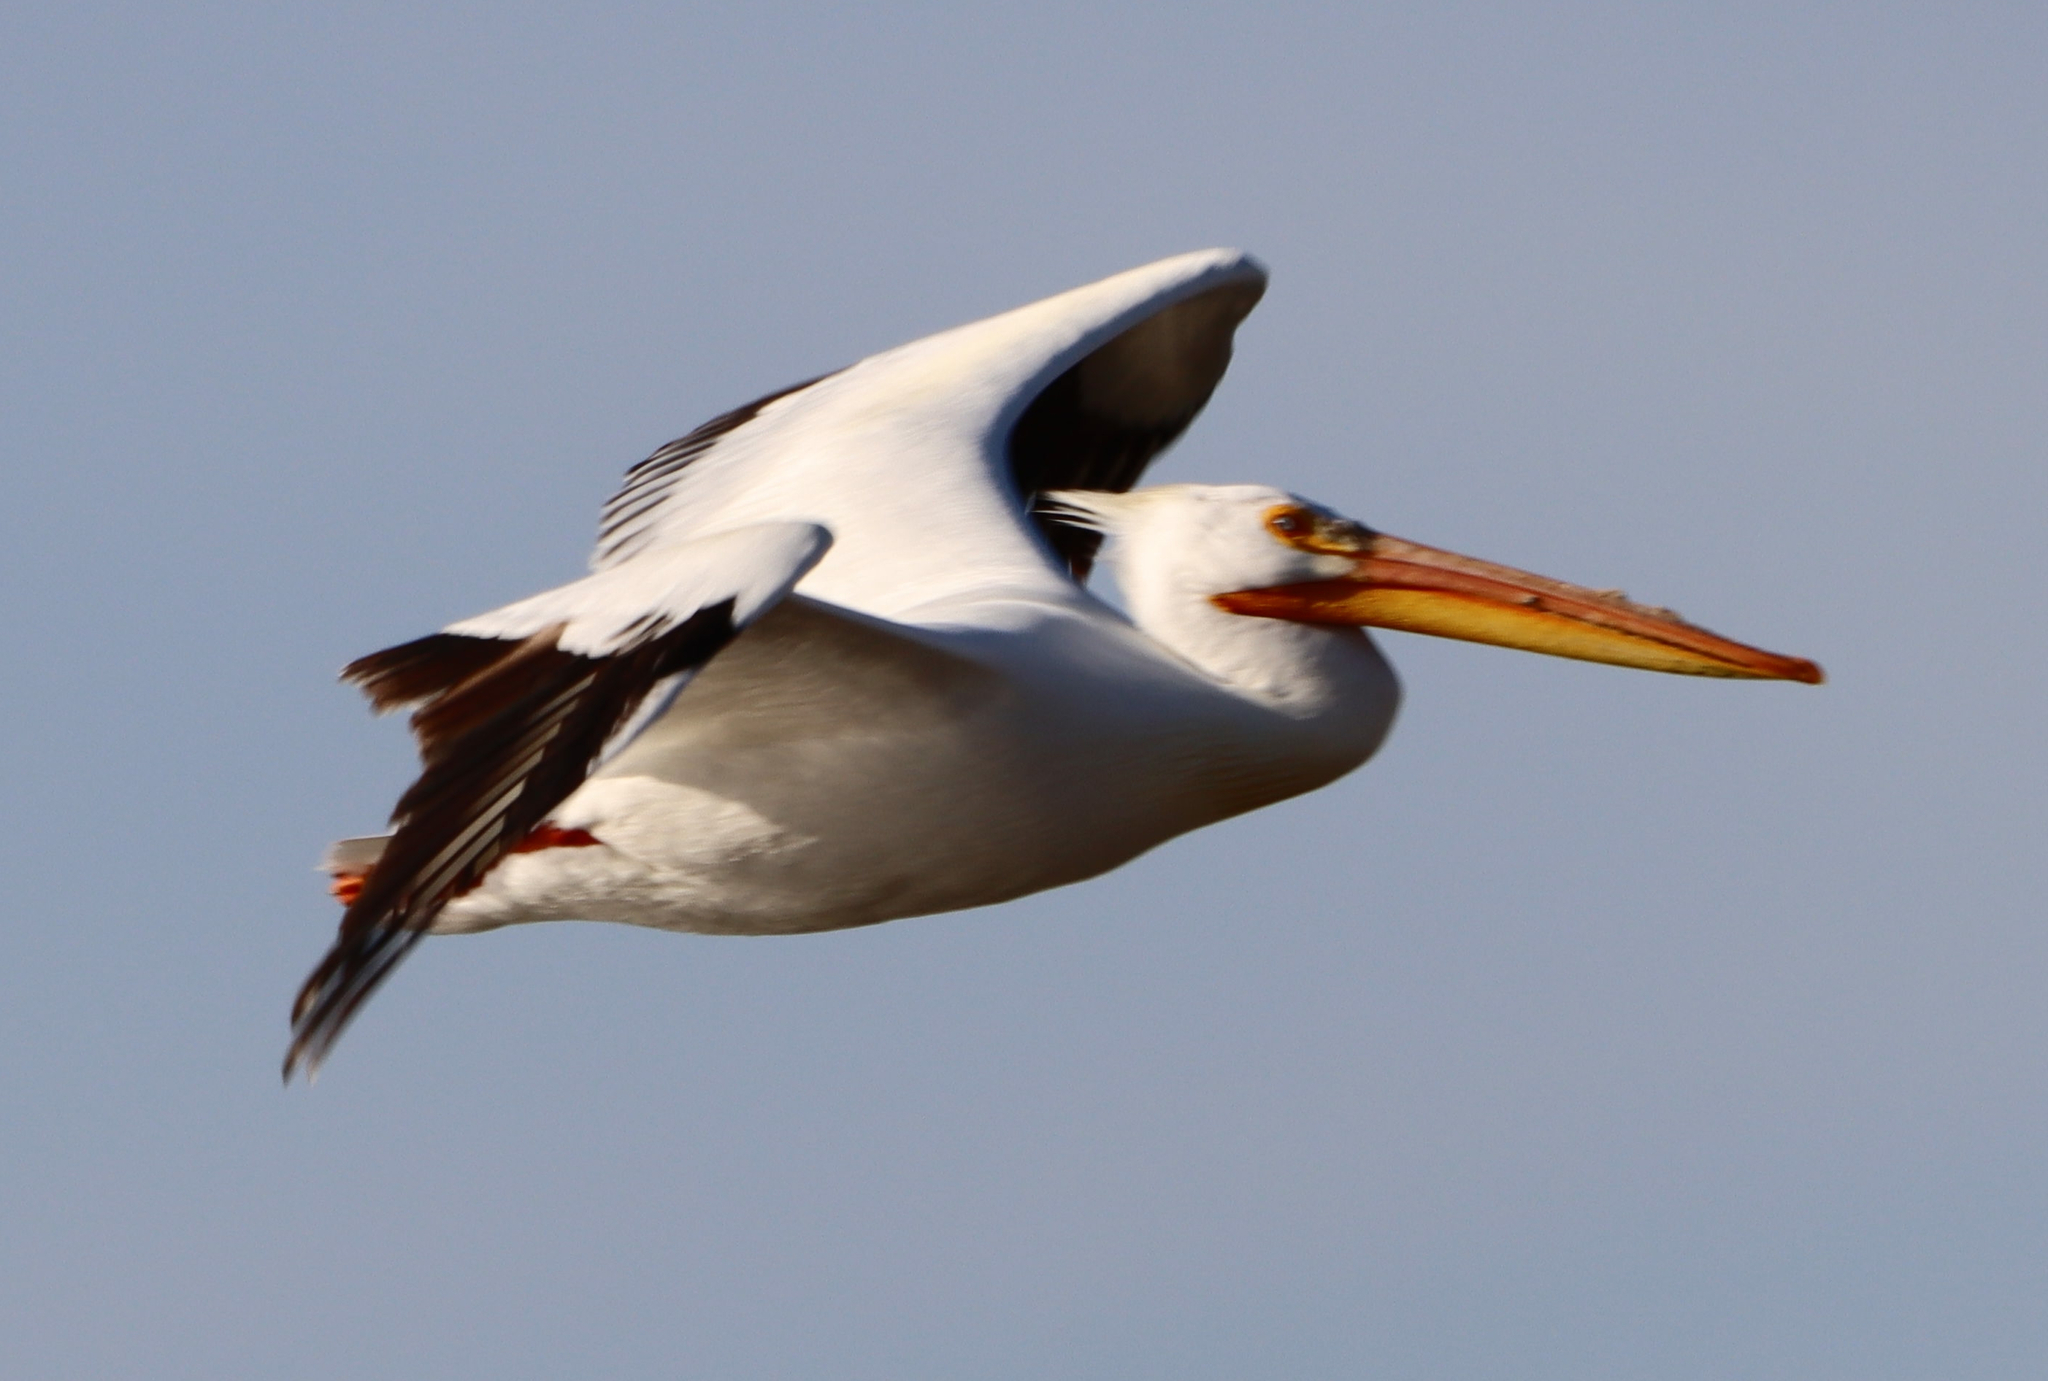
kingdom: Animalia
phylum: Chordata
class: Aves
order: Pelecaniformes
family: Pelecanidae
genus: Pelecanus
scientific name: Pelecanus erythrorhynchos
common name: American white pelican
